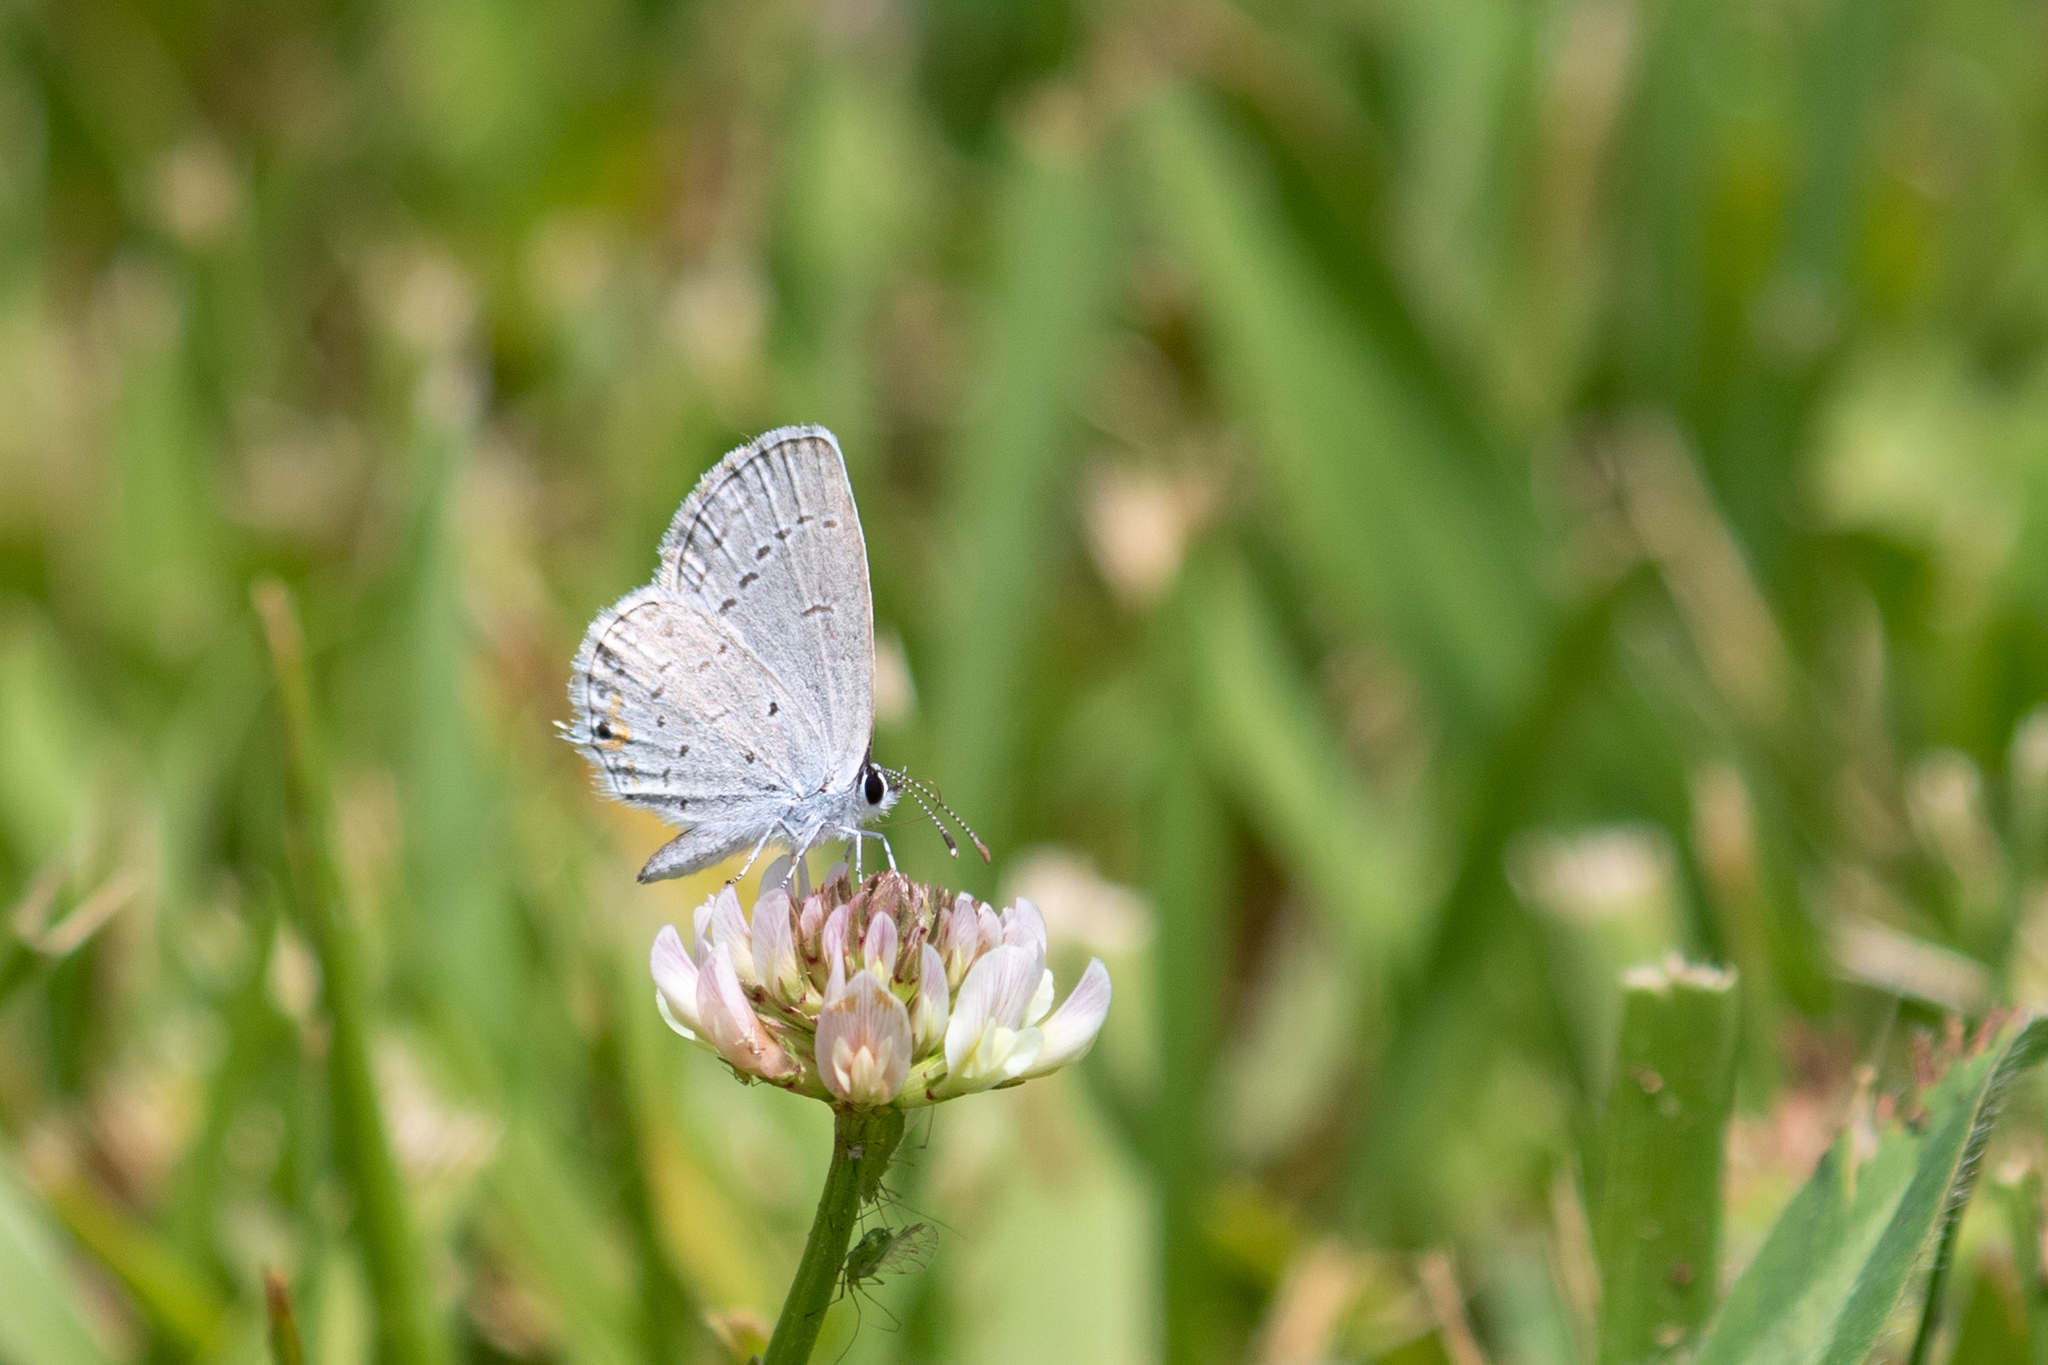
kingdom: Animalia
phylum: Arthropoda
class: Insecta
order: Lepidoptera
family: Lycaenidae
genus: Elkalyce
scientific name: Elkalyce comyntas
